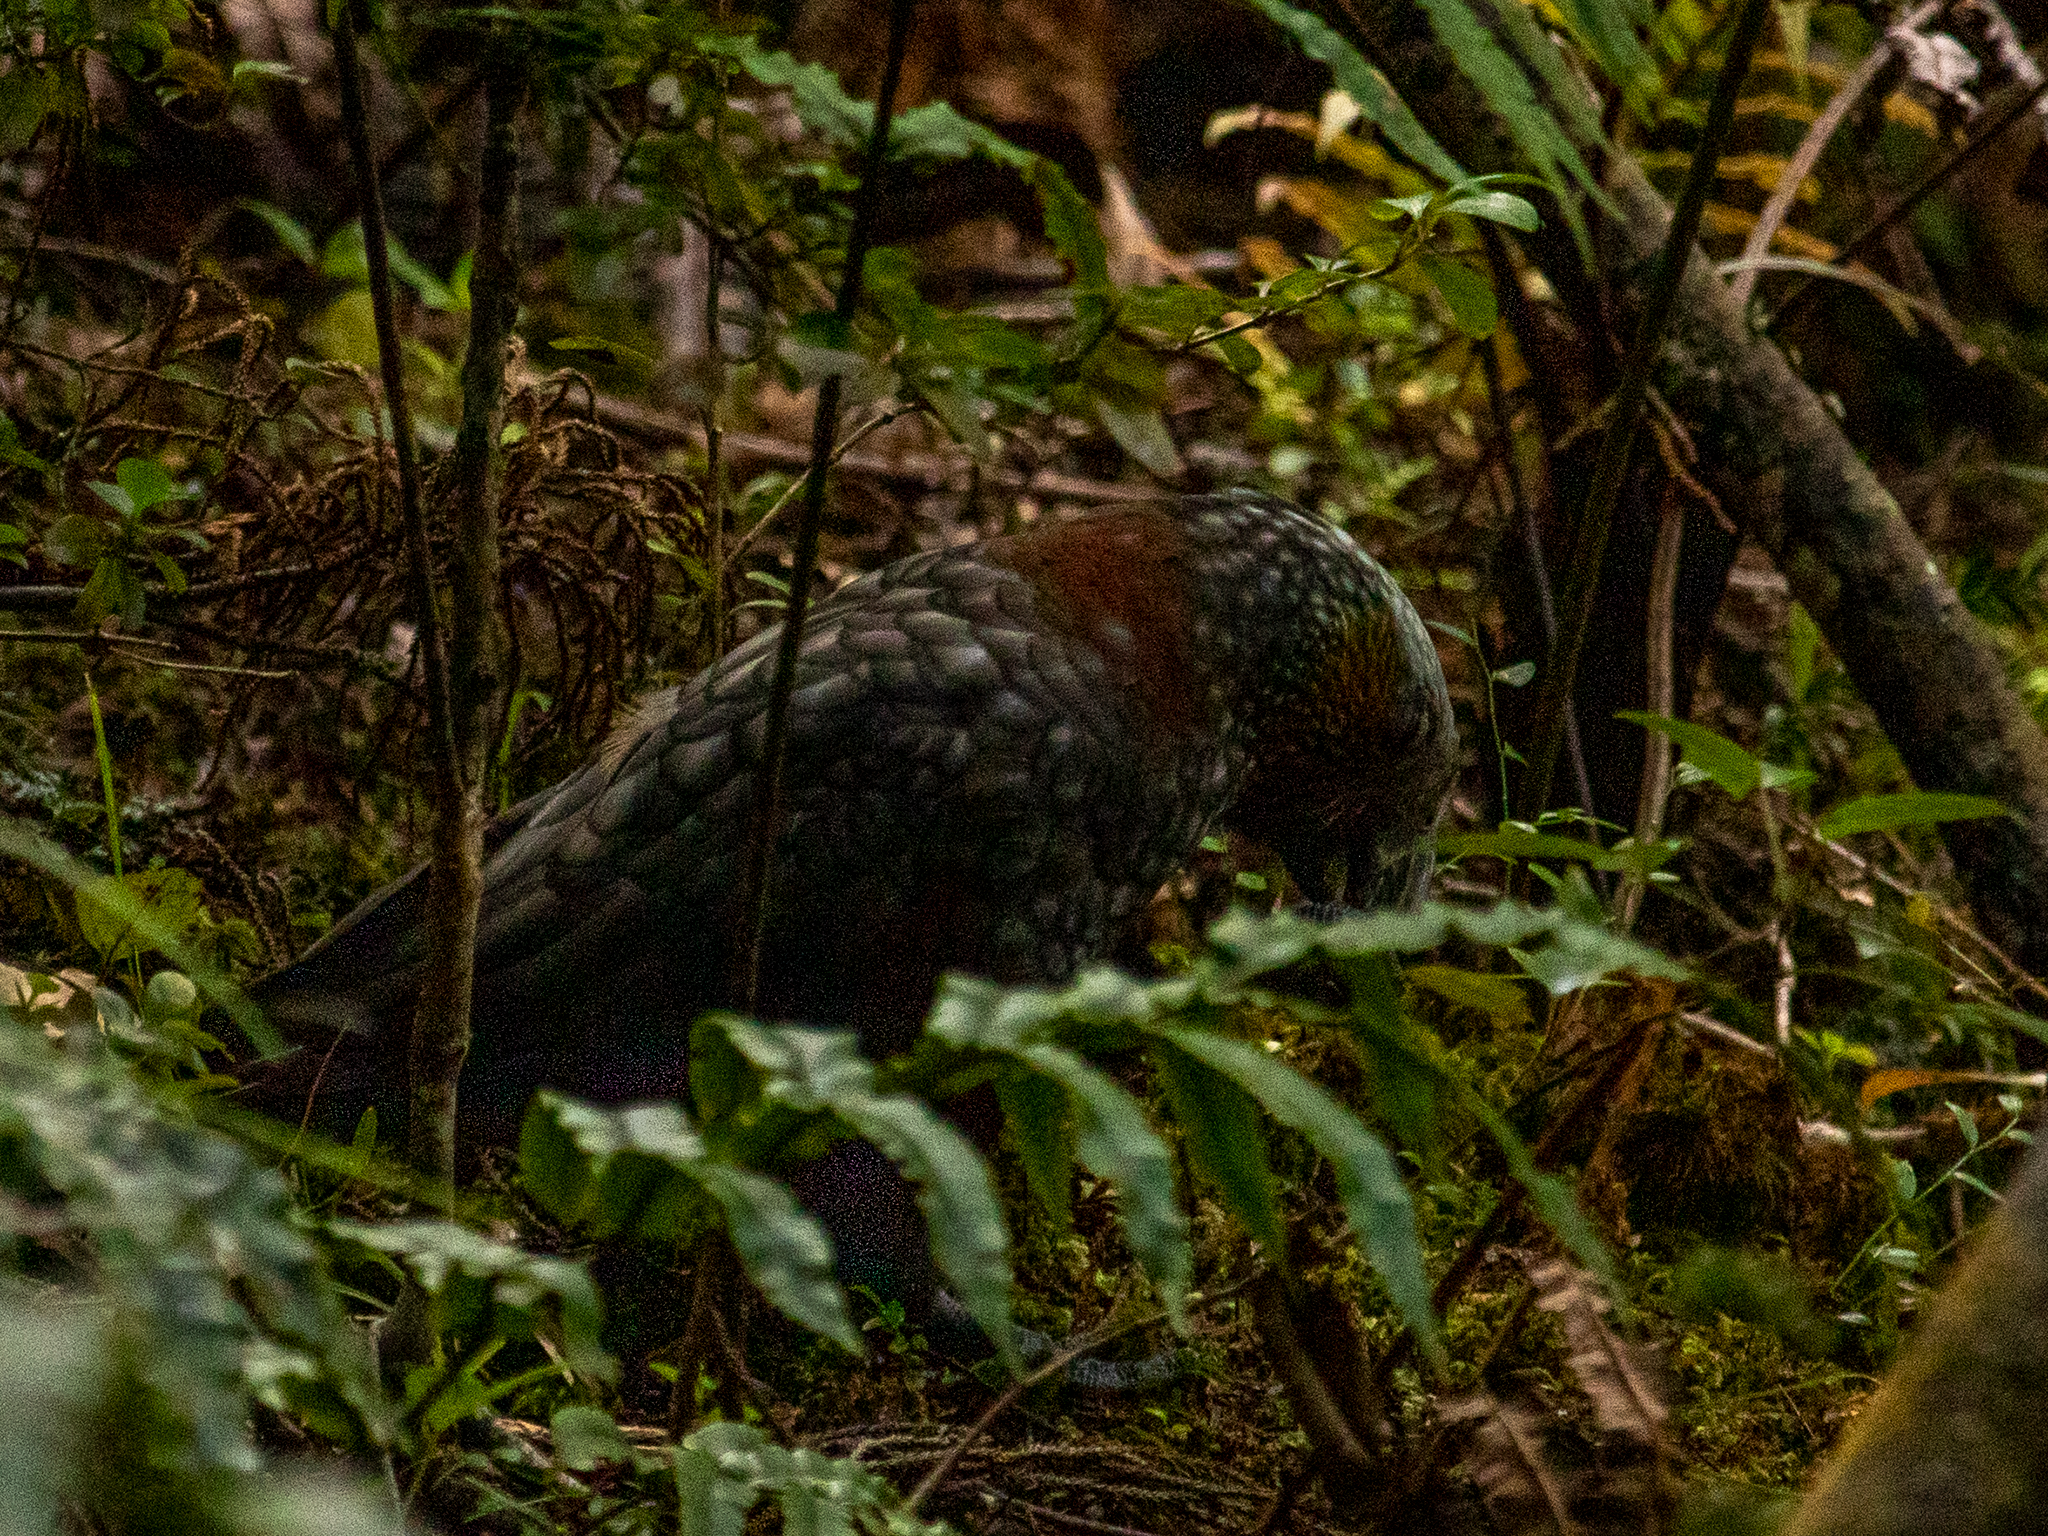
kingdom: Animalia
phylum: Chordata
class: Aves
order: Psittaciformes
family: Psittacidae
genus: Nestor
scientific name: Nestor meridionalis
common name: New zealand kaka
